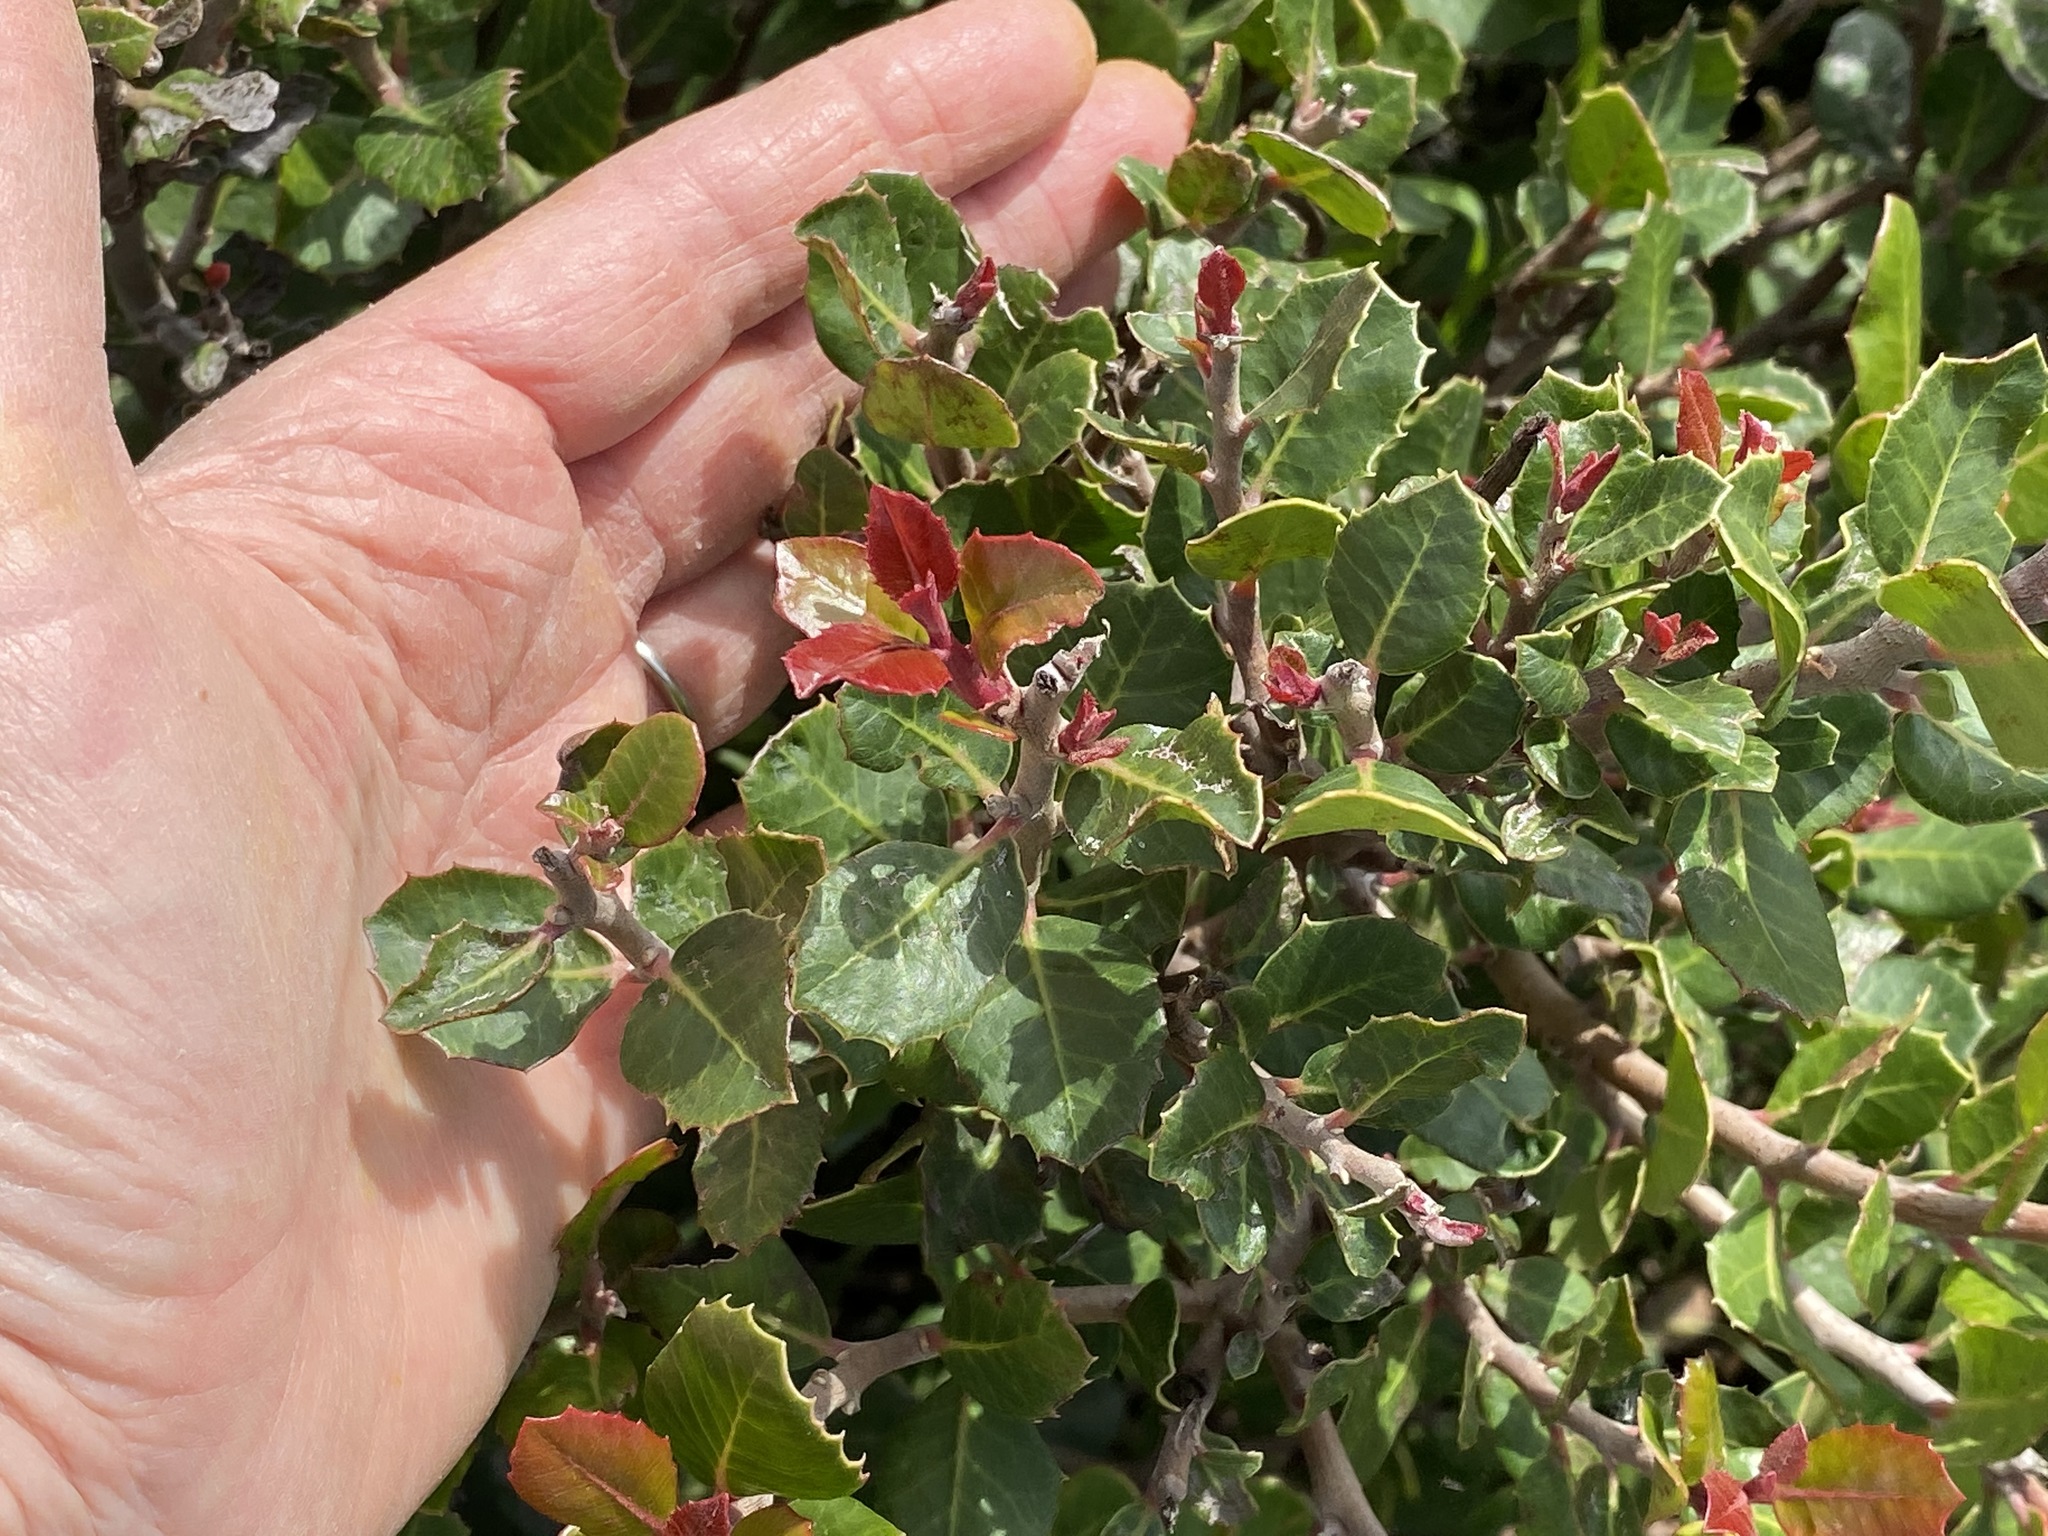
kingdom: Plantae
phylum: Tracheophyta
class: Magnoliopsida
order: Sapindales
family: Anacardiaceae
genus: Rhus
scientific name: Rhus integrifolia
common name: Lemonade sumac
